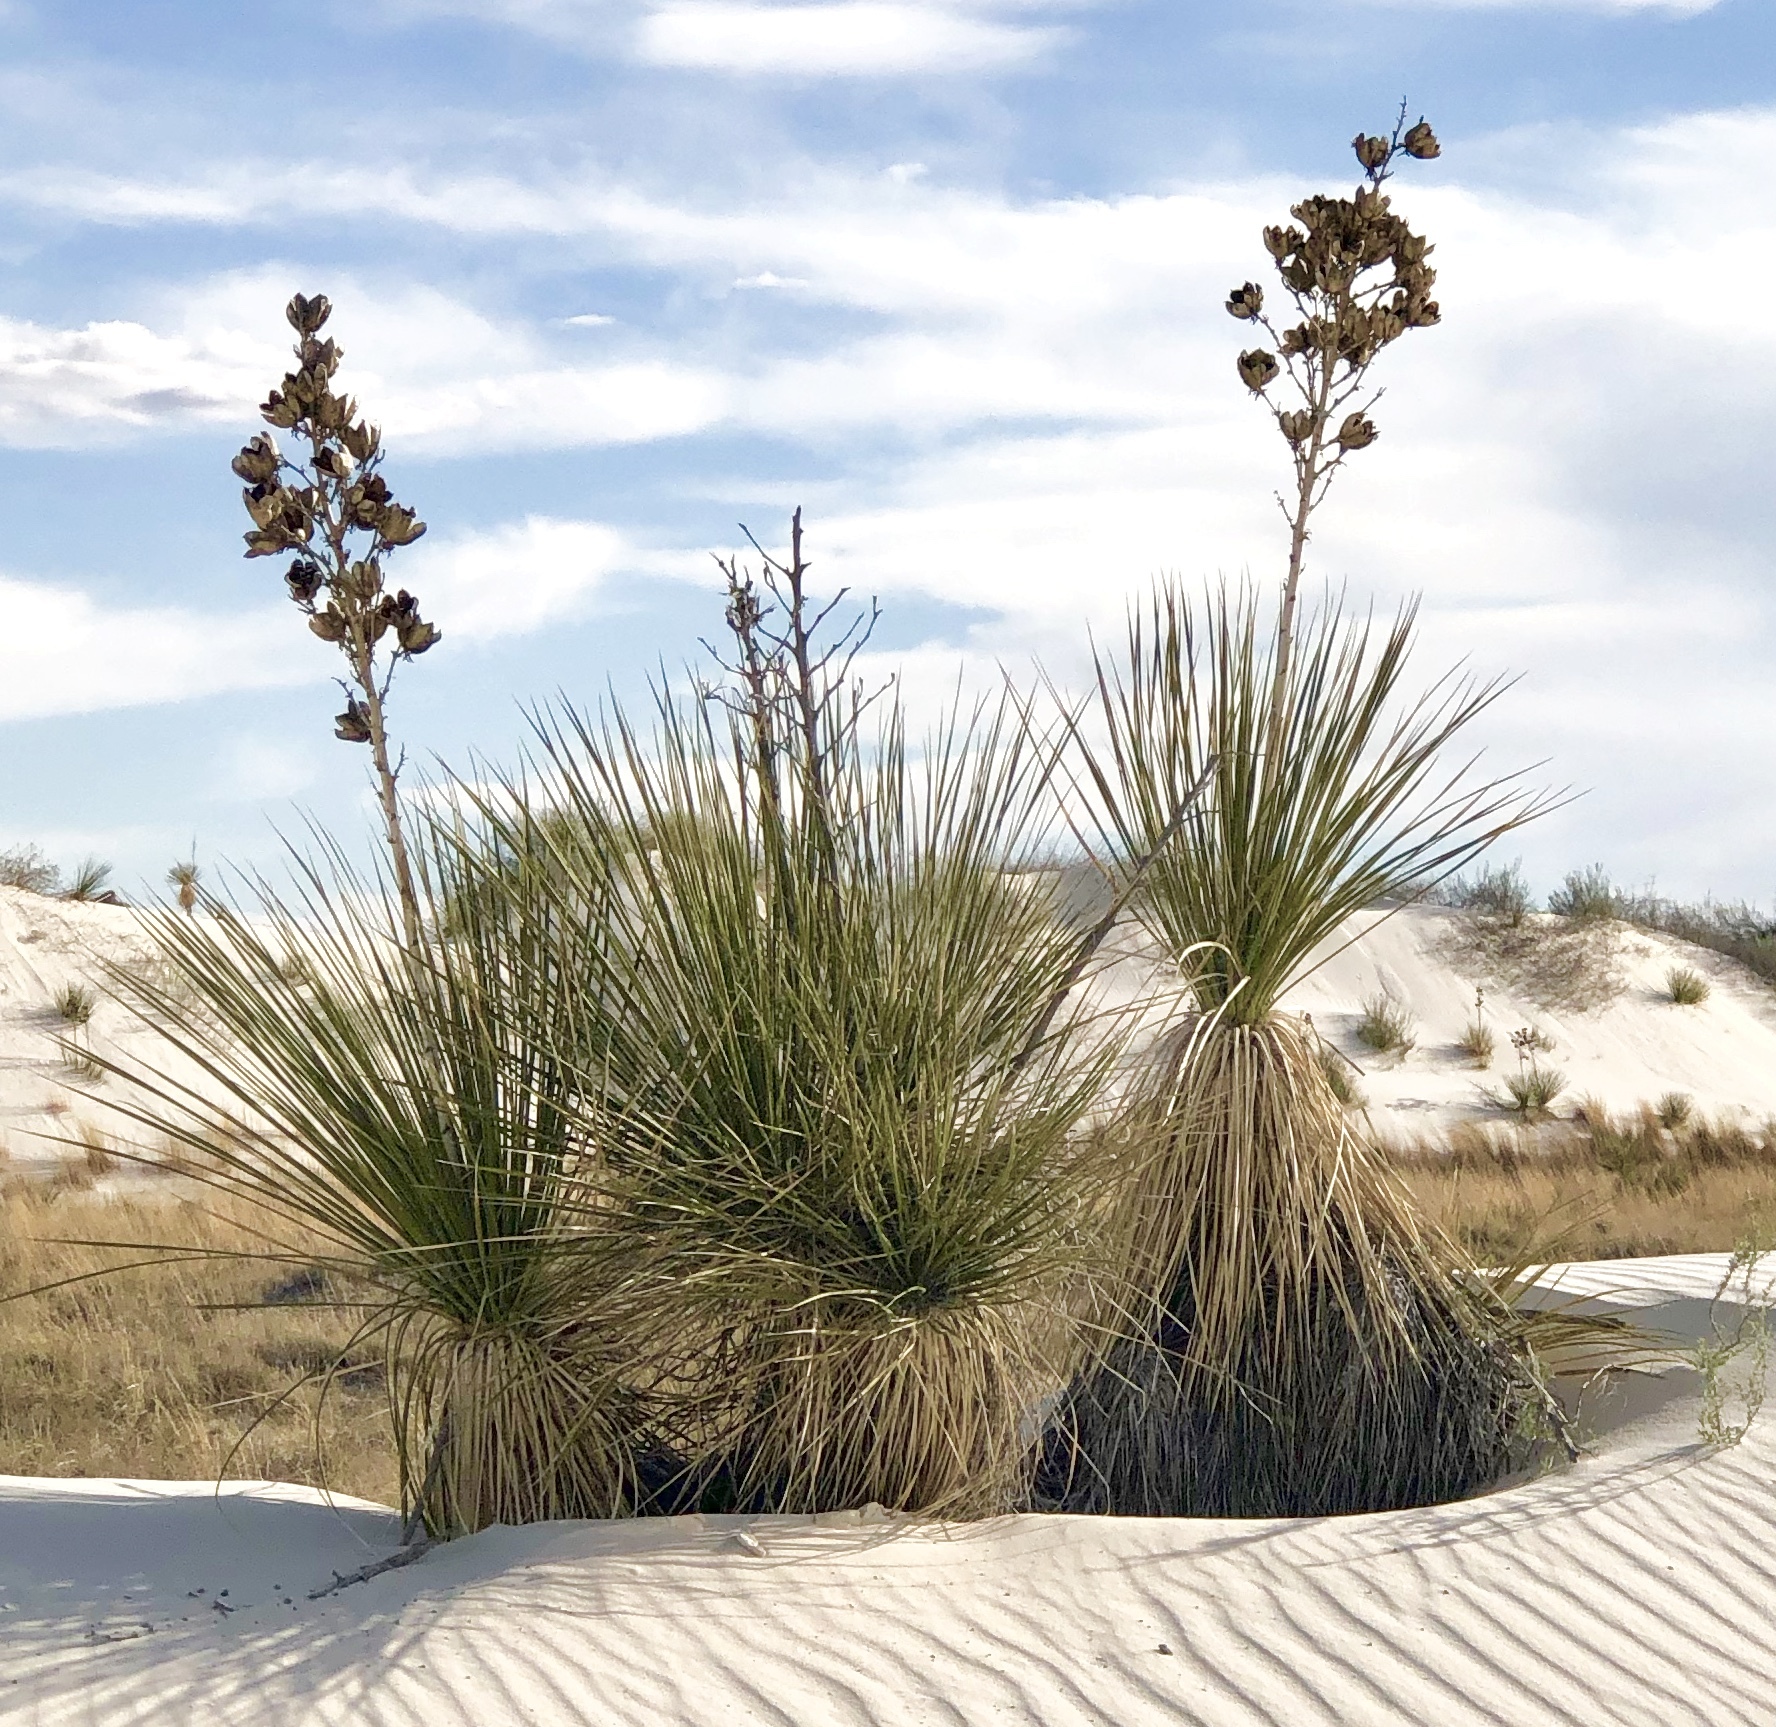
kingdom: Plantae
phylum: Tracheophyta
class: Liliopsida
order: Asparagales
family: Asparagaceae
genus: Yucca
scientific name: Yucca elata
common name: Palmella
